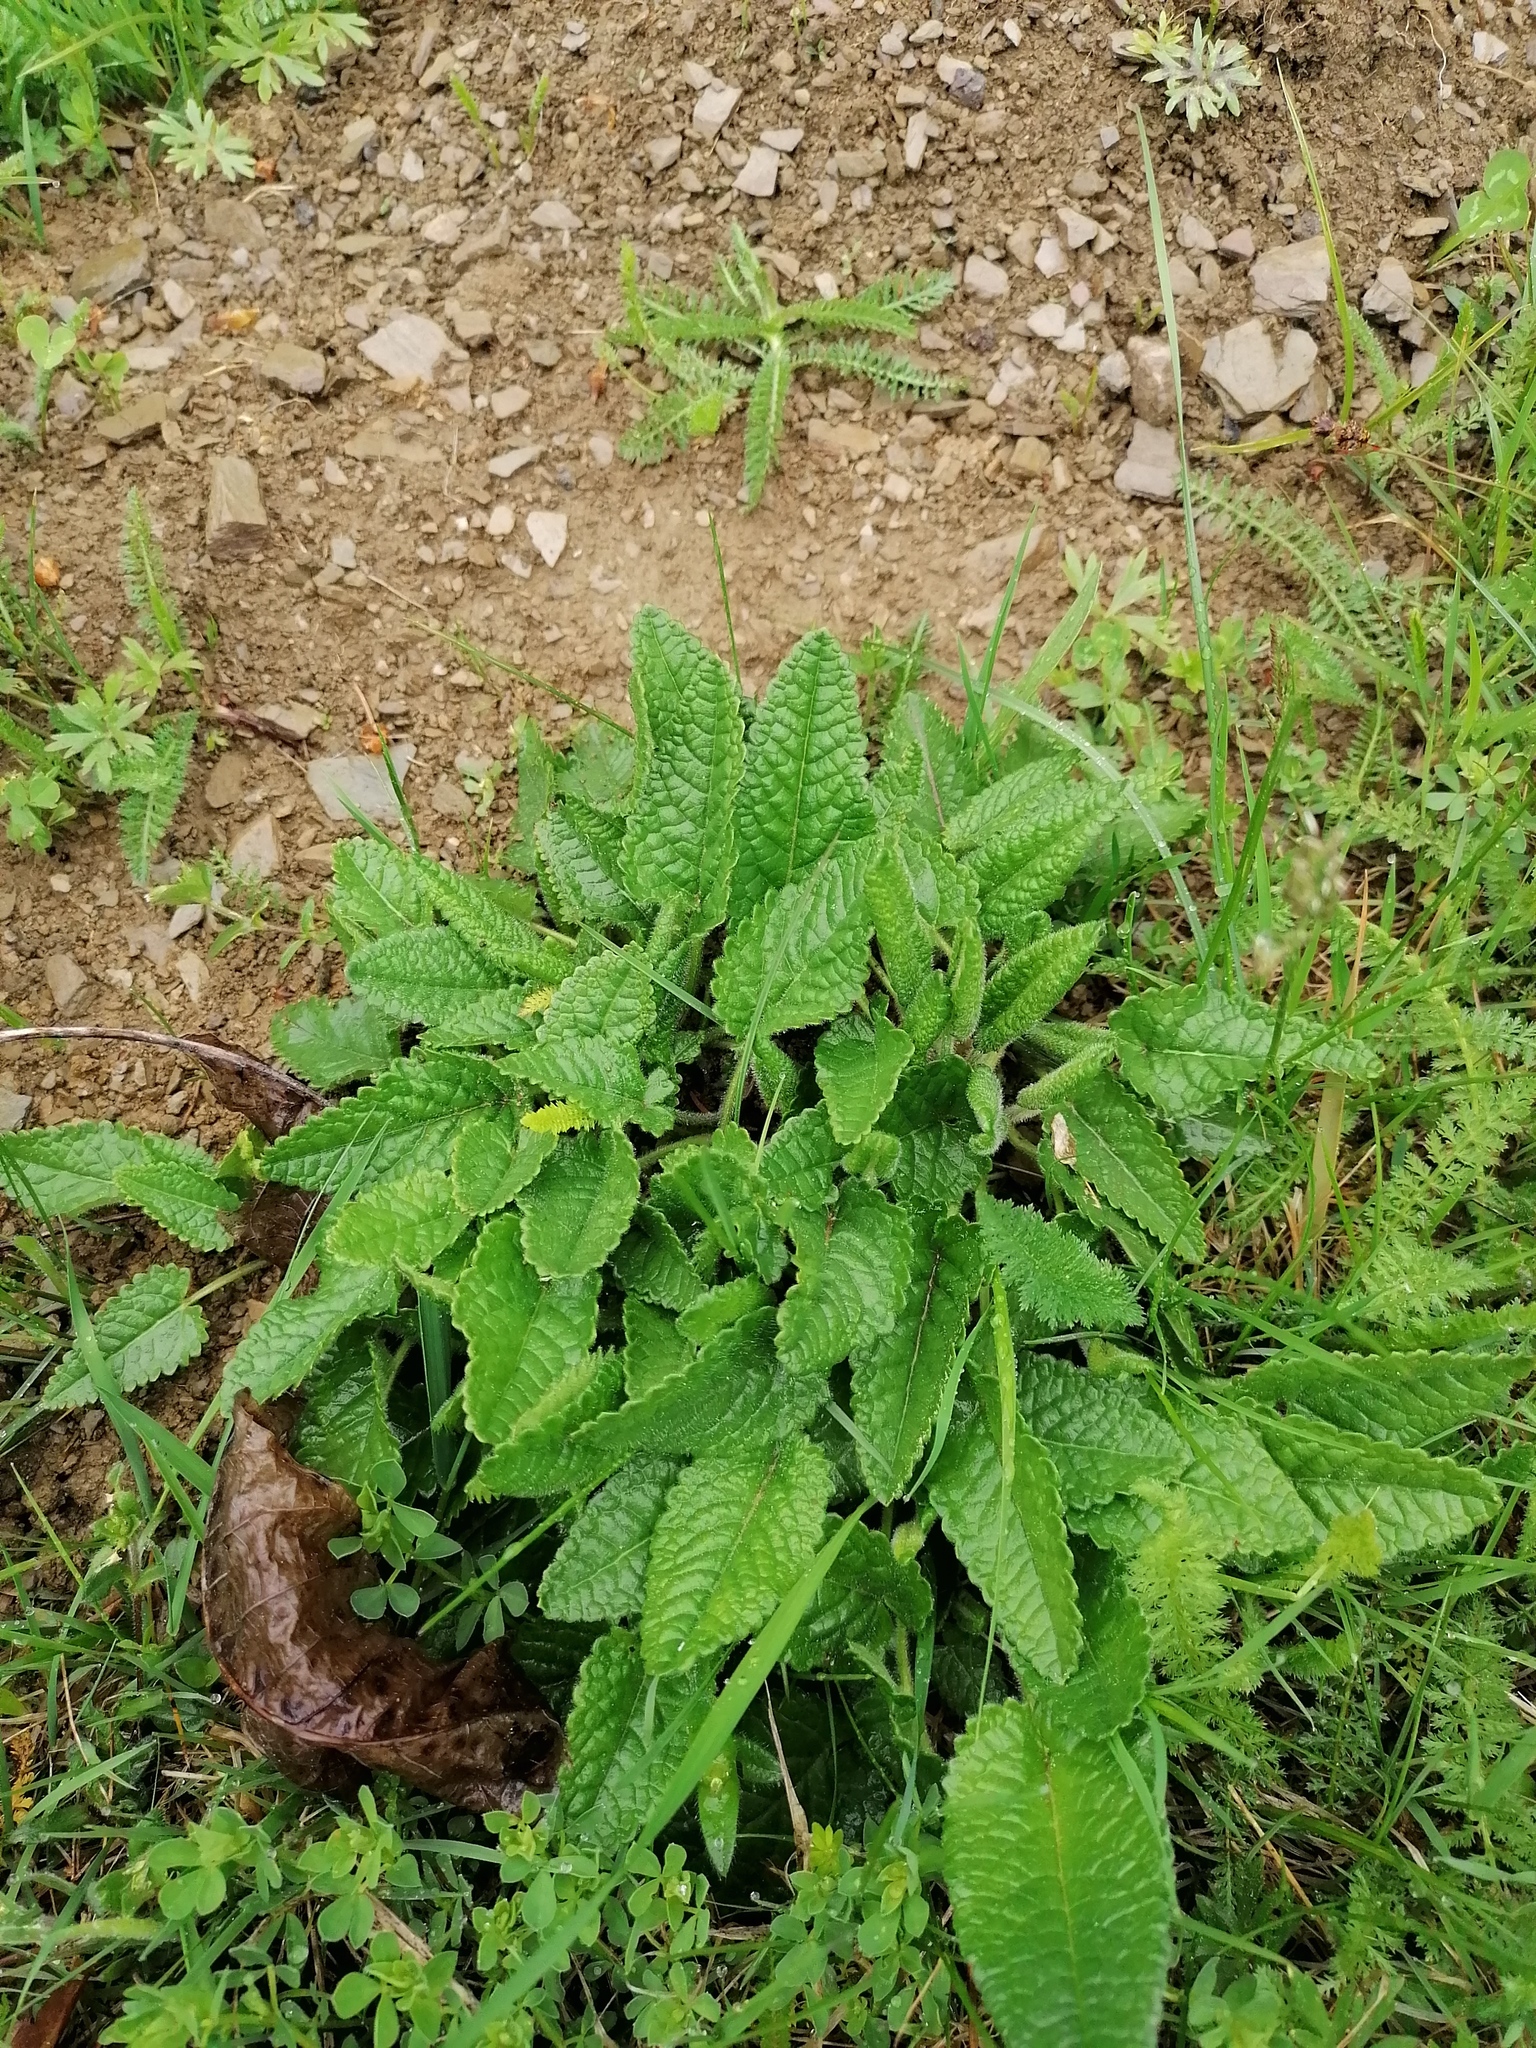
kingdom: Plantae
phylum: Tracheophyta
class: Magnoliopsida
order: Lamiales
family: Lamiaceae
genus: Betonica
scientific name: Betonica officinalis
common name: Bishop's-wort
